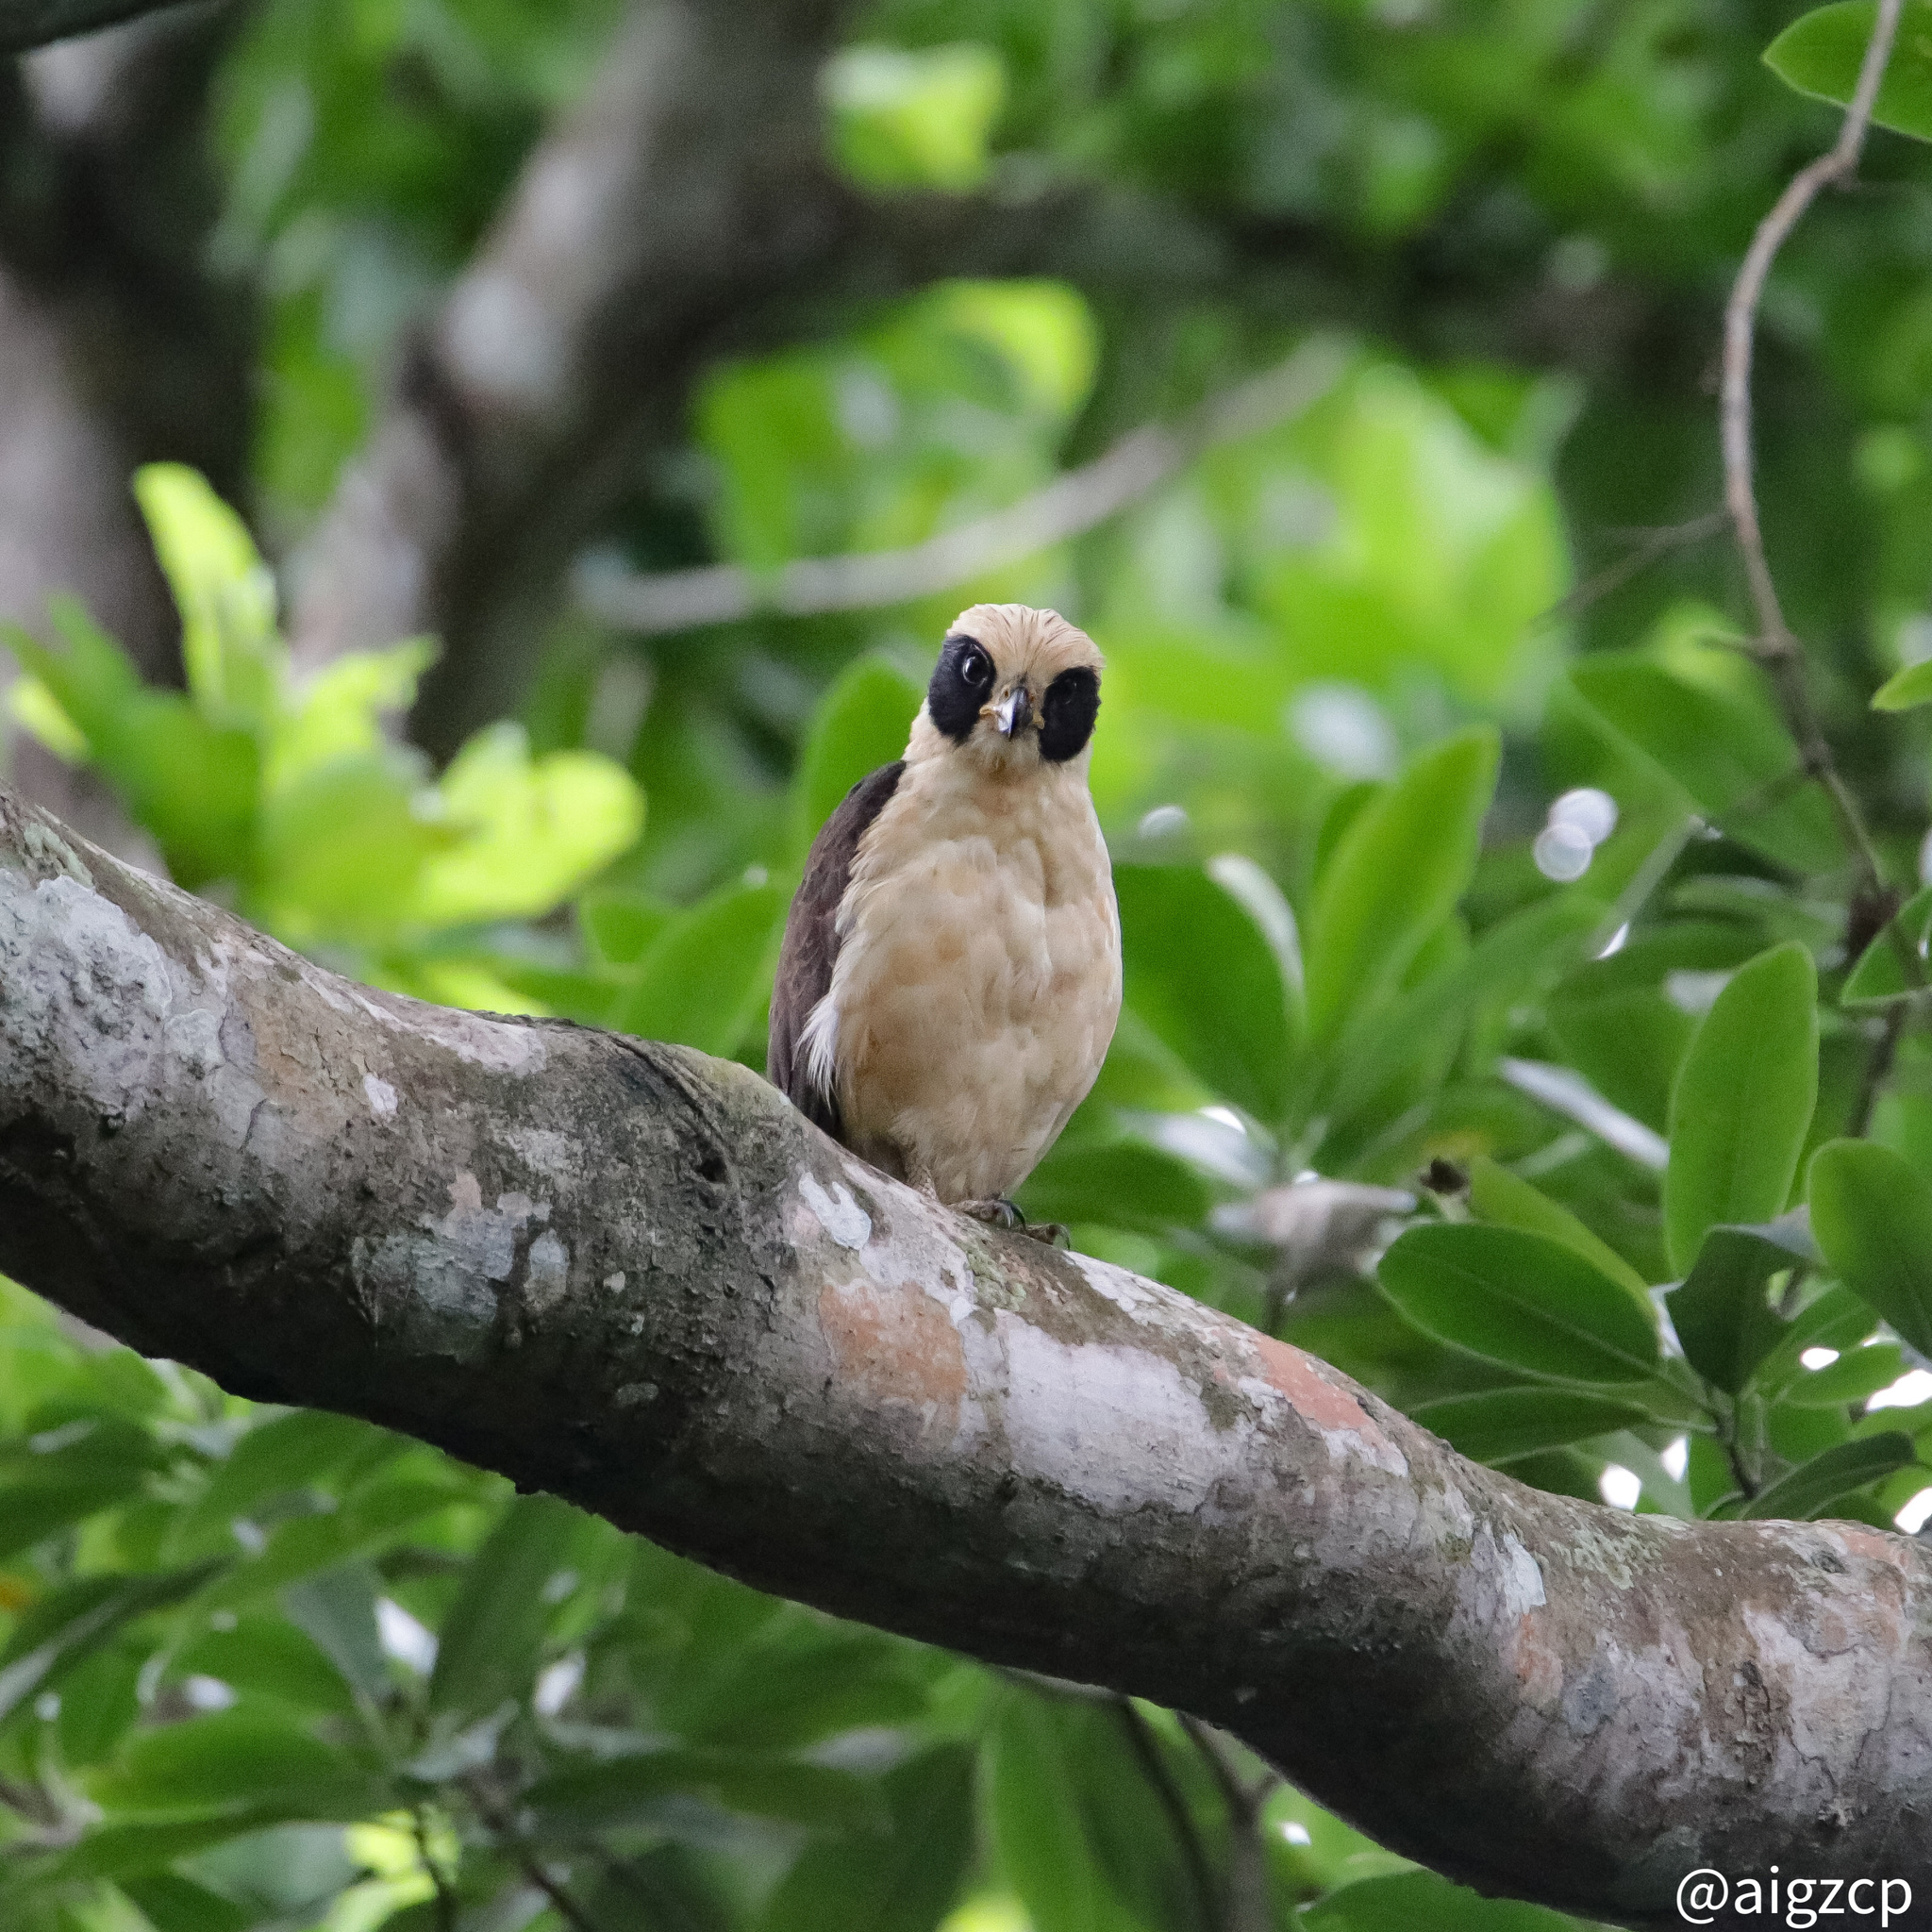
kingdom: Animalia
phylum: Chordata
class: Aves
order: Falconiformes
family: Falconidae
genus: Herpetotheres
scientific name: Herpetotheres cachinnans
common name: Laughing falcon
